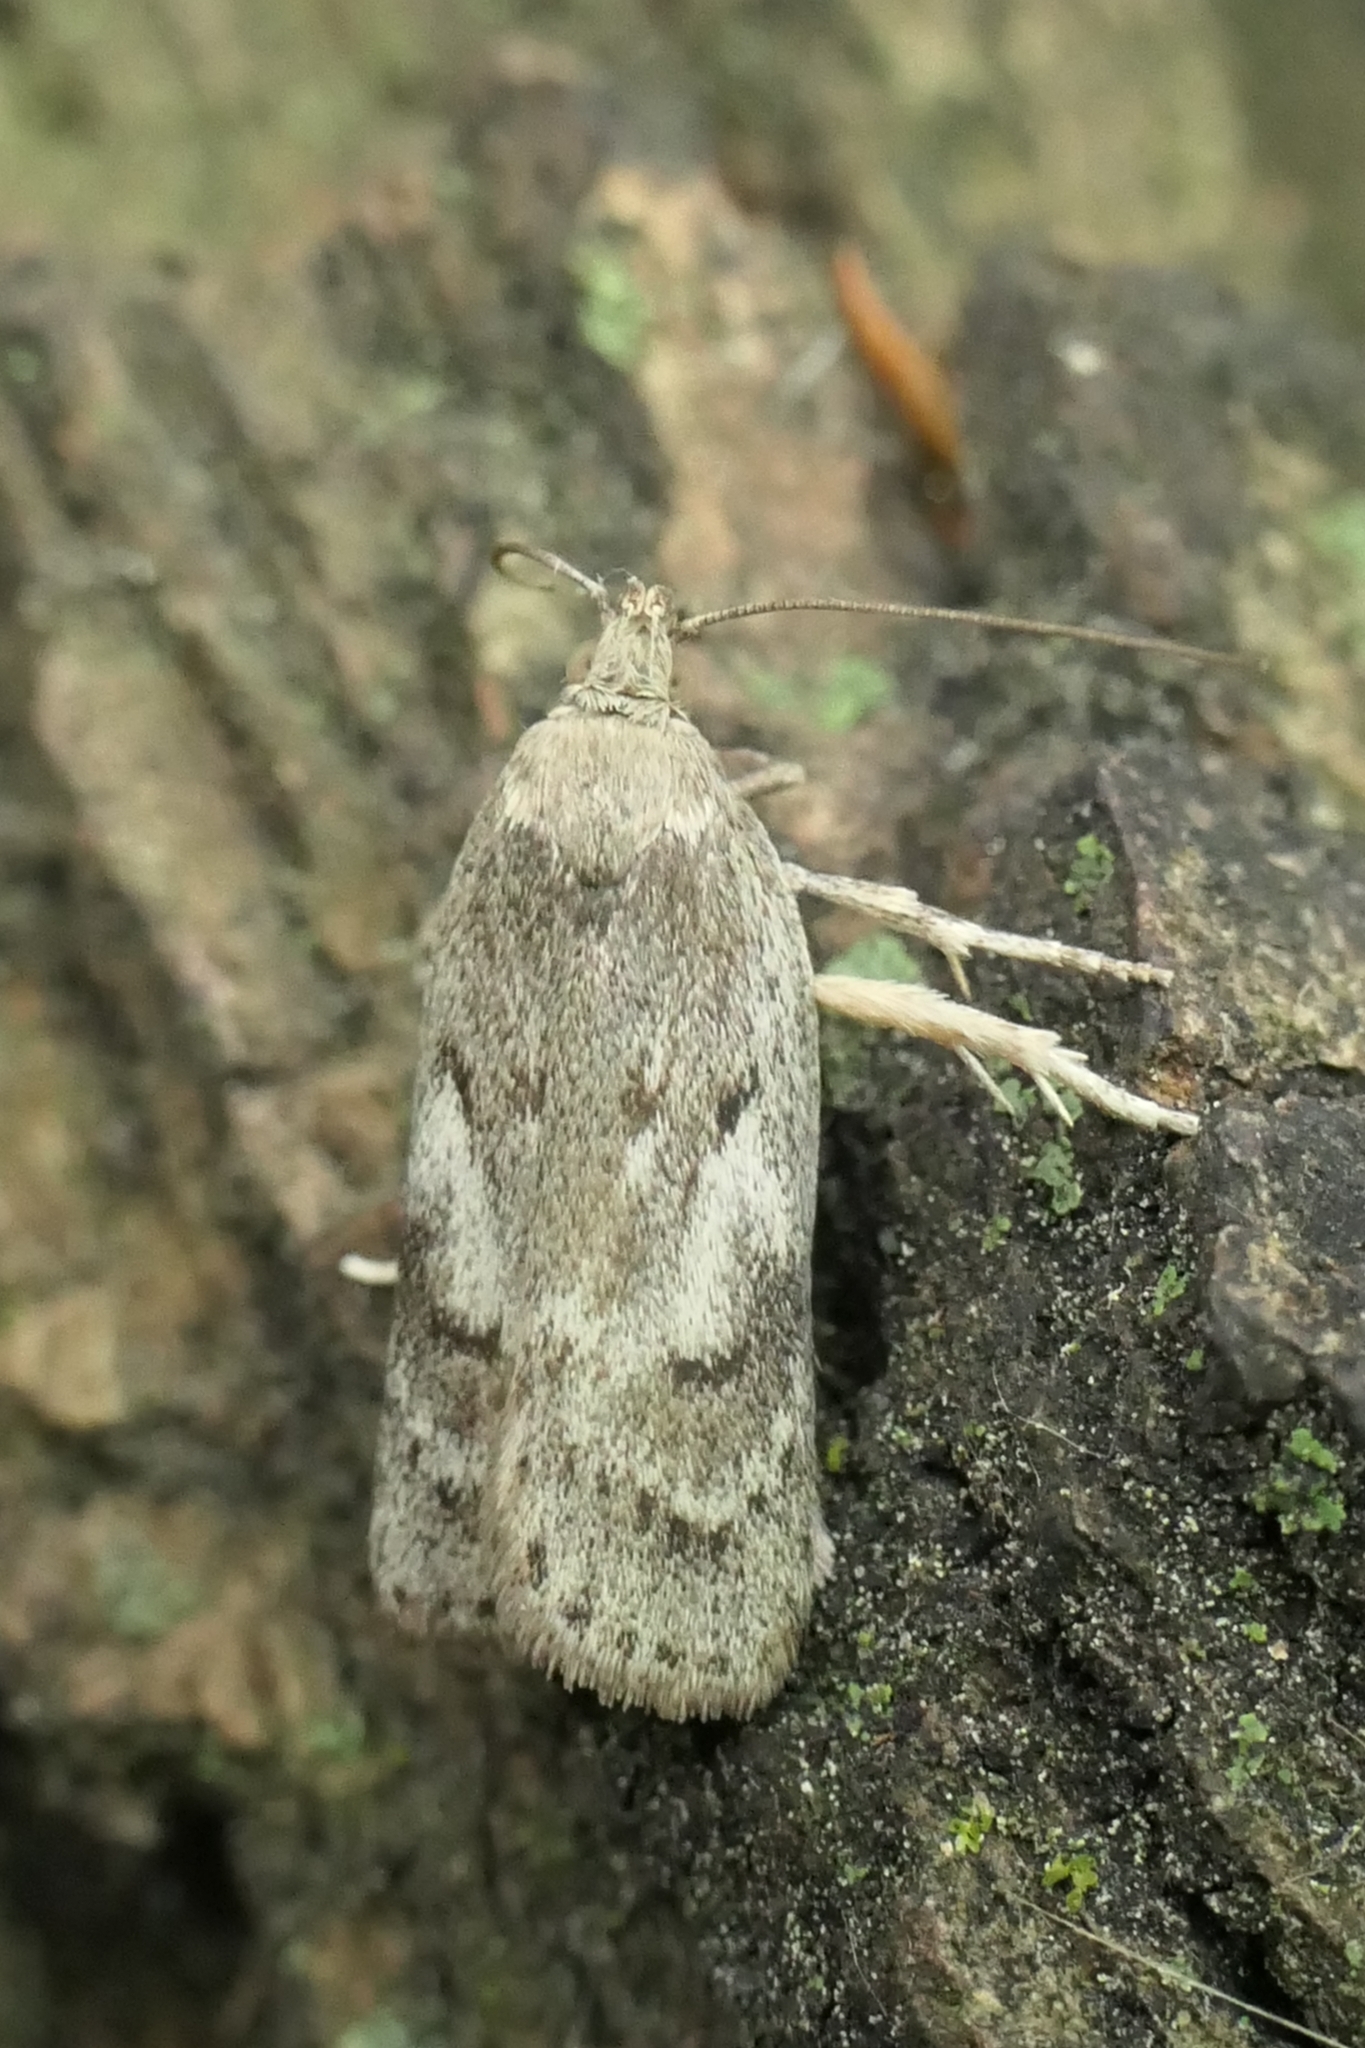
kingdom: Animalia
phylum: Arthropoda
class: Insecta
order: Lepidoptera
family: Depressariidae
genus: Phaeosaces
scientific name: Phaeosaces apocrypta
